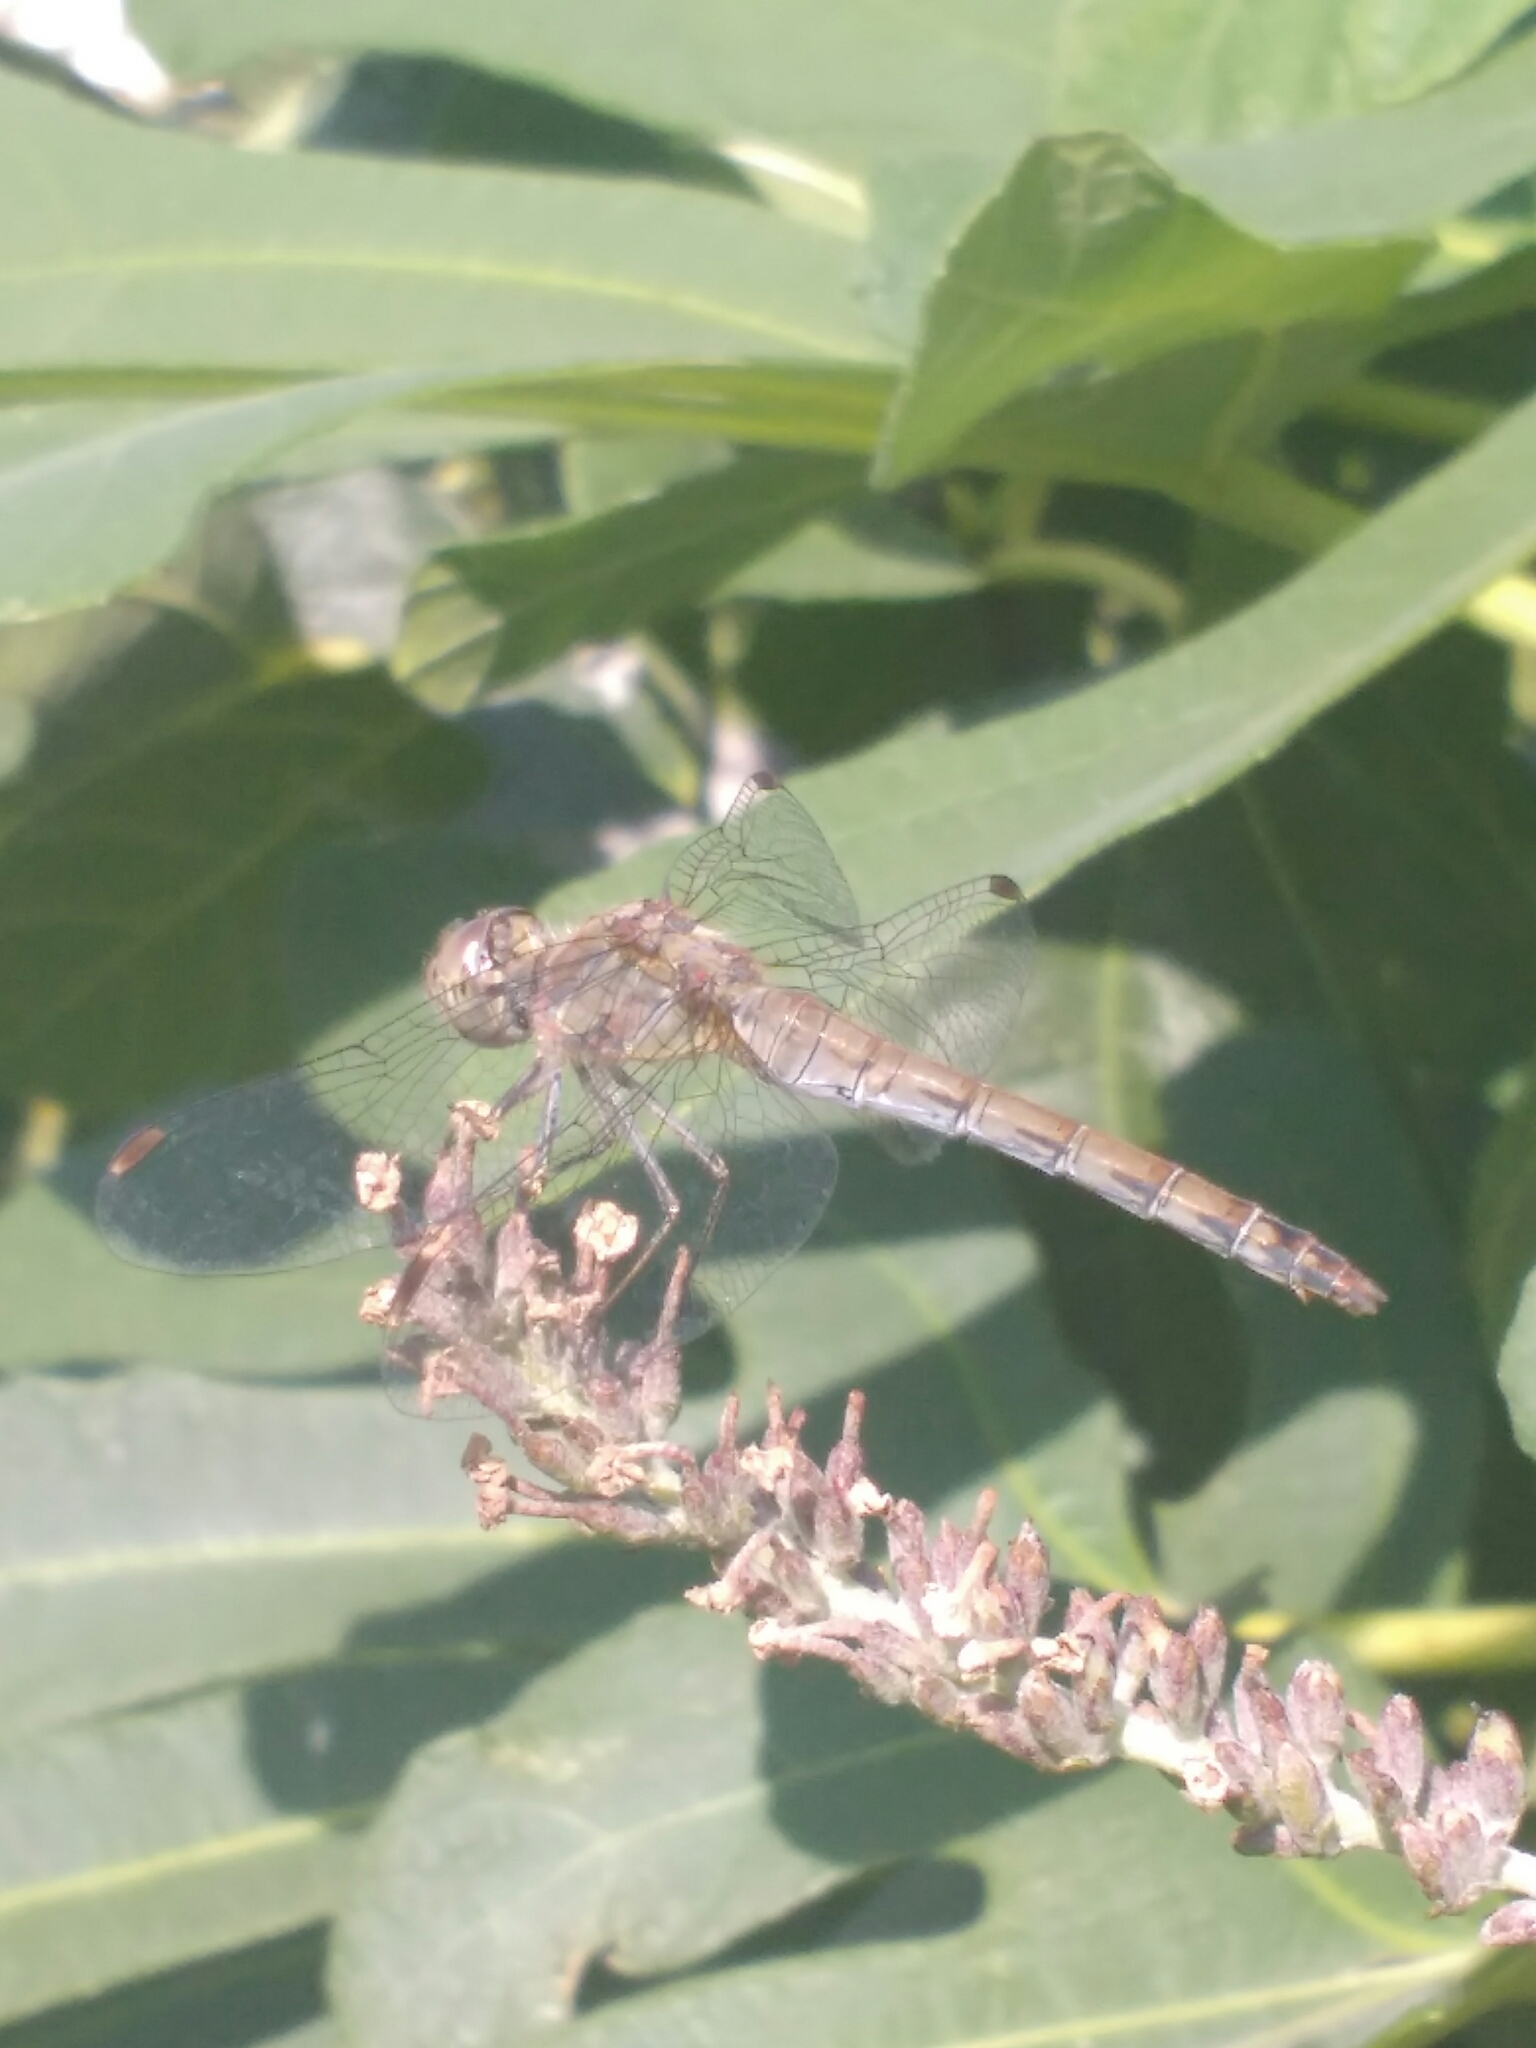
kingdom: Animalia
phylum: Arthropoda
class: Insecta
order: Odonata
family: Libellulidae
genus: Sympetrum
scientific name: Sympetrum striolatum
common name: Common darter
